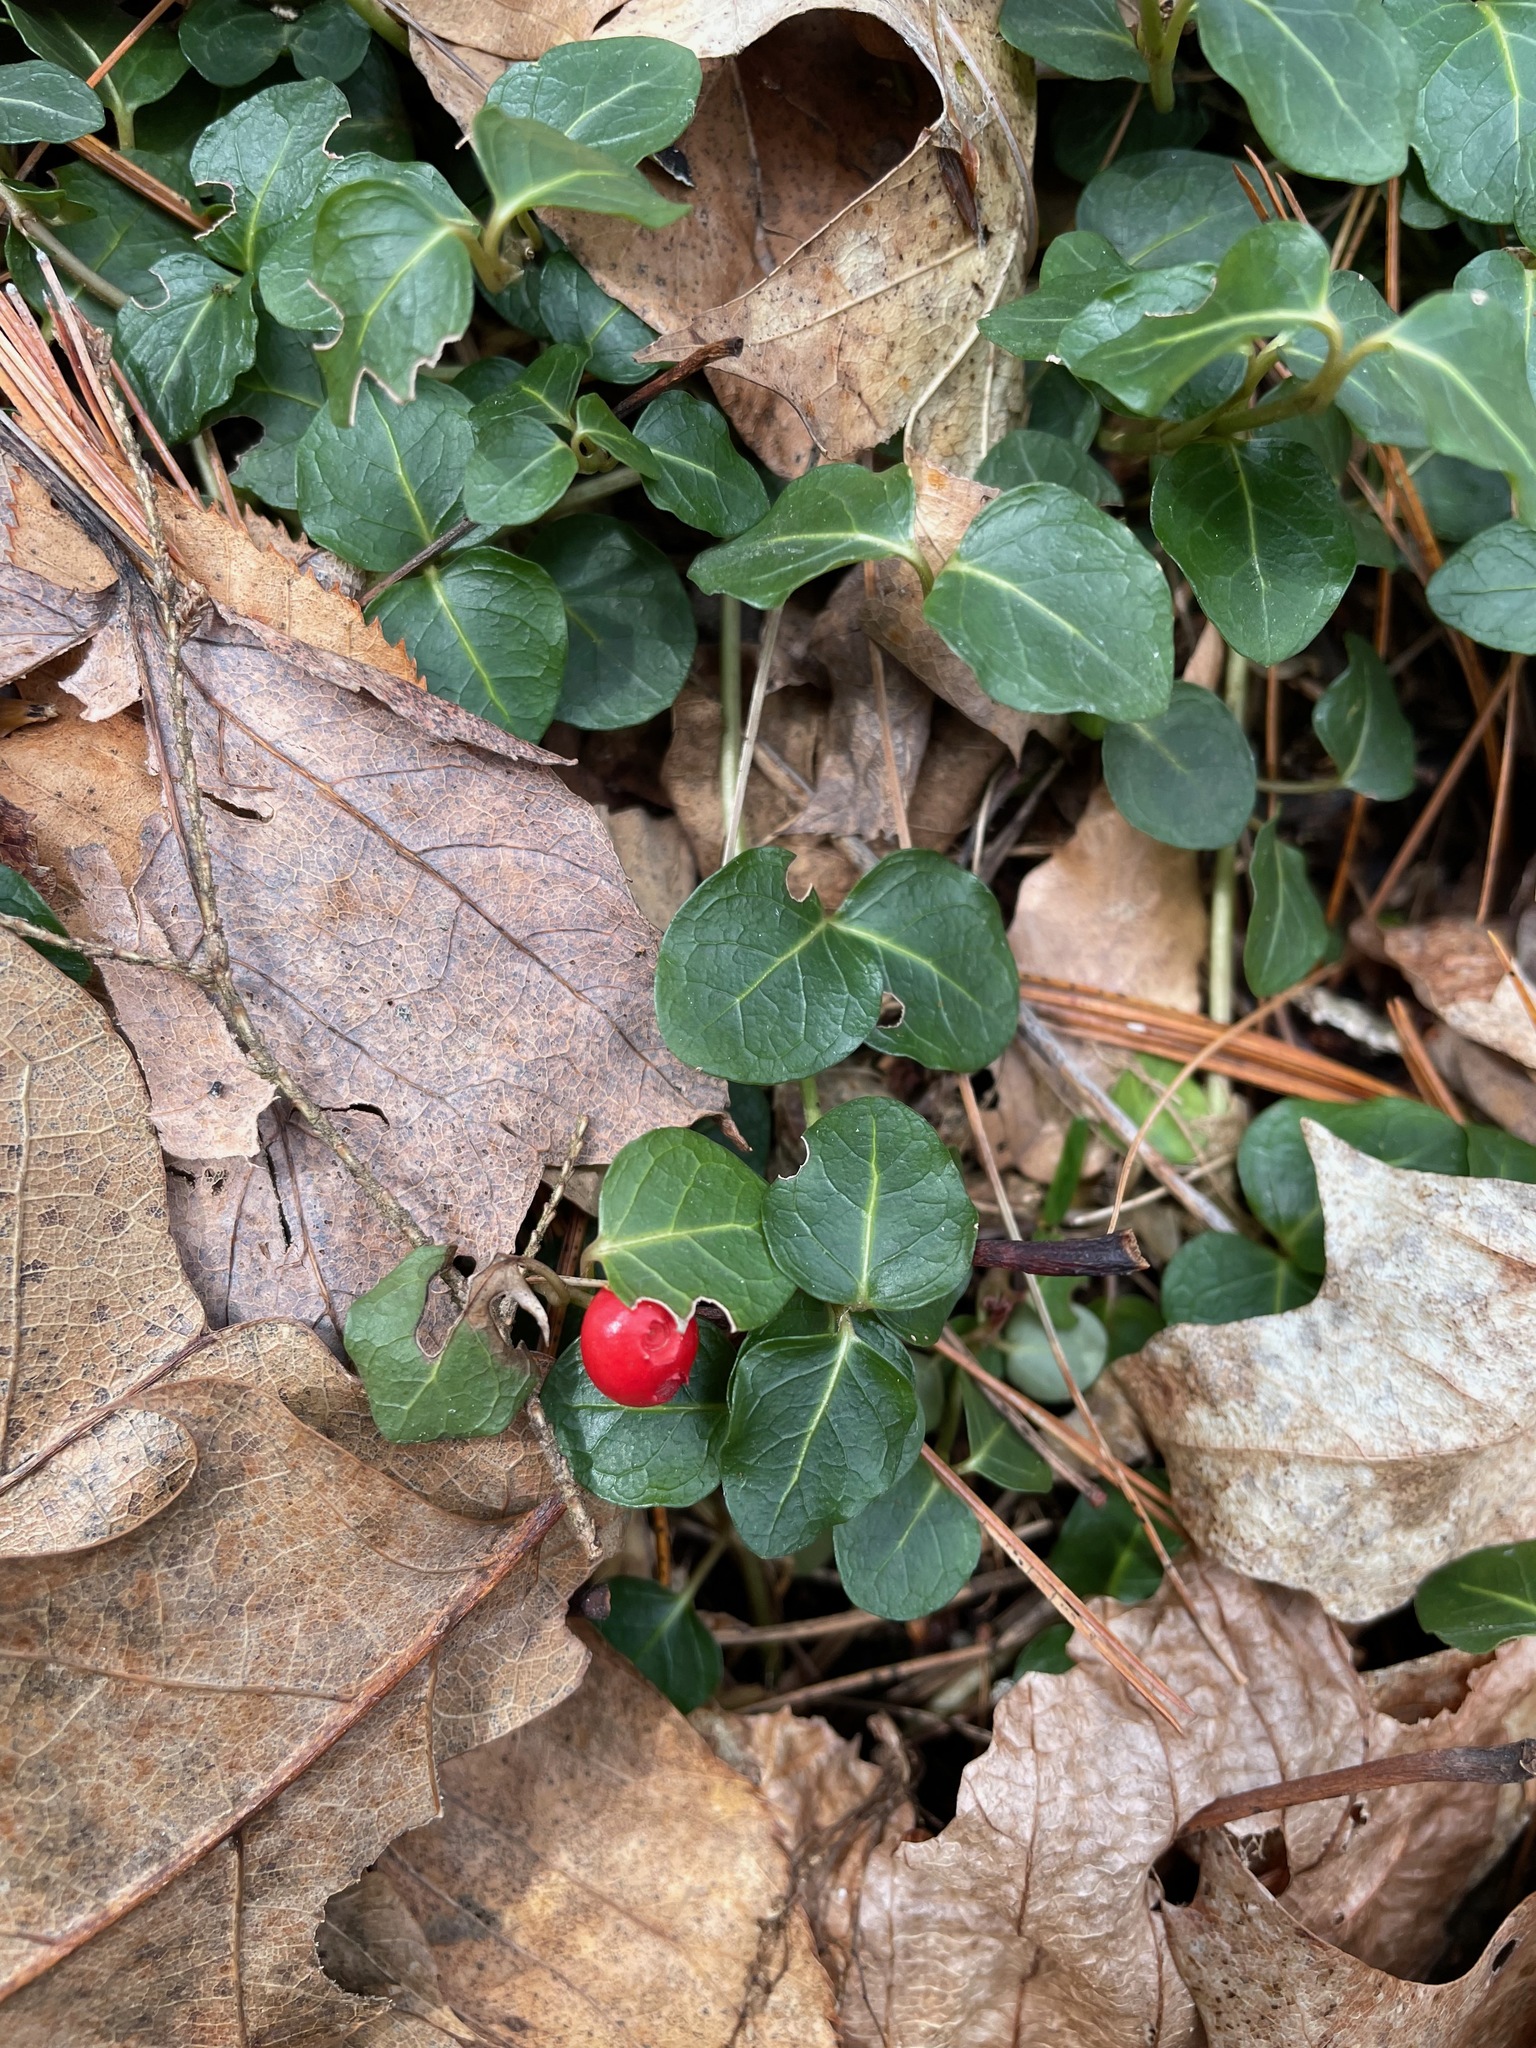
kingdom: Plantae
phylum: Tracheophyta
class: Magnoliopsida
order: Gentianales
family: Rubiaceae
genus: Mitchella
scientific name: Mitchella repens
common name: Partridge-berry
